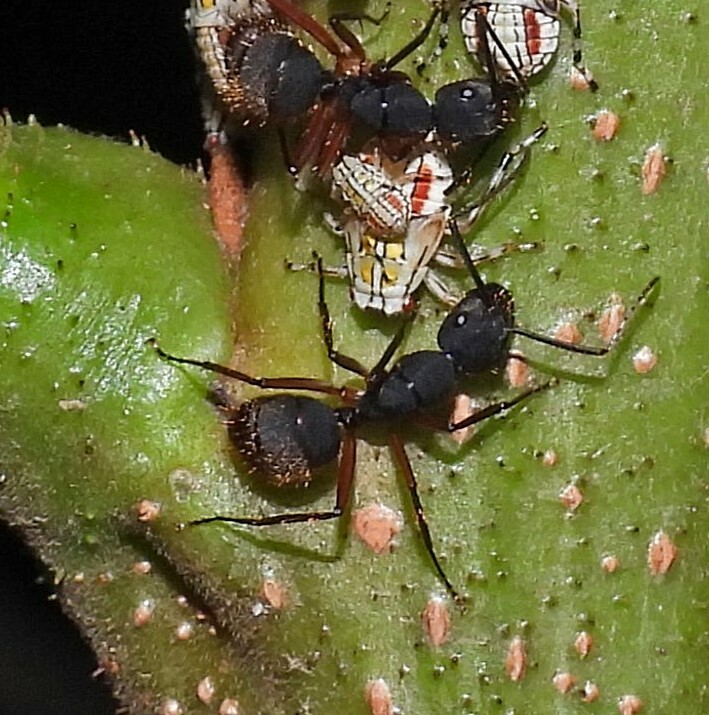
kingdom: Animalia
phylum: Arthropoda
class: Insecta
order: Hymenoptera
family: Formicidae
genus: Camponotus
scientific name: Camponotus rufipes
